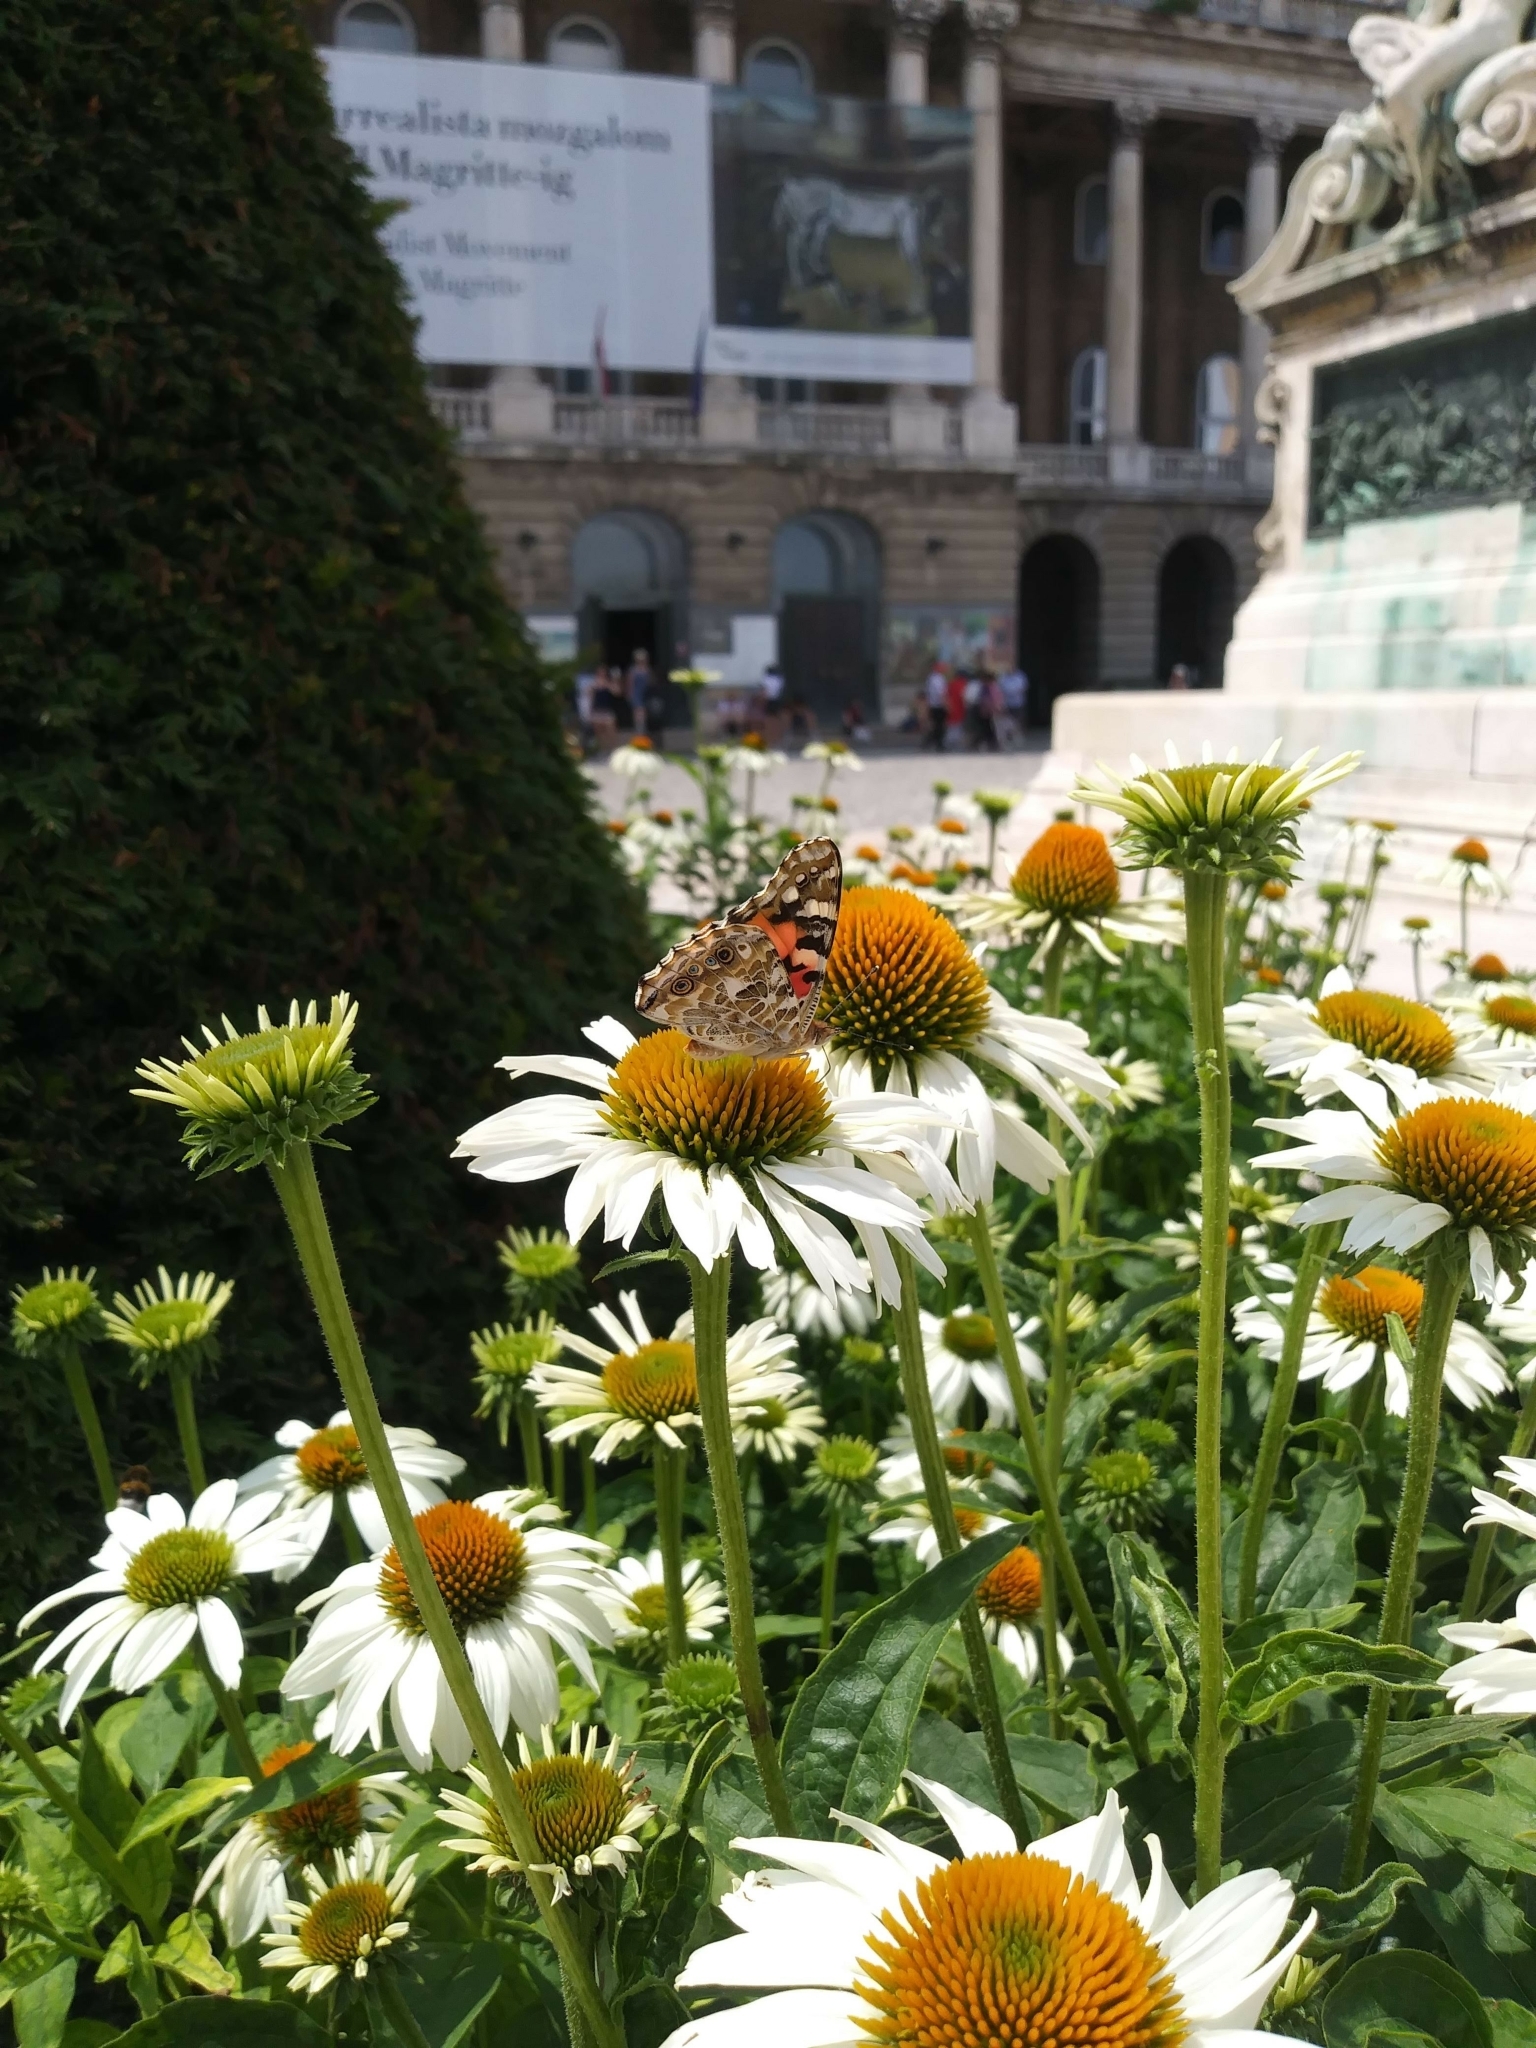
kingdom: Animalia
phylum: Arthropoda
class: Insecta
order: Lepidoptera
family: Nymphalidae
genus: Vanessa
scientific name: Vanessa cardui
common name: Painted lady
